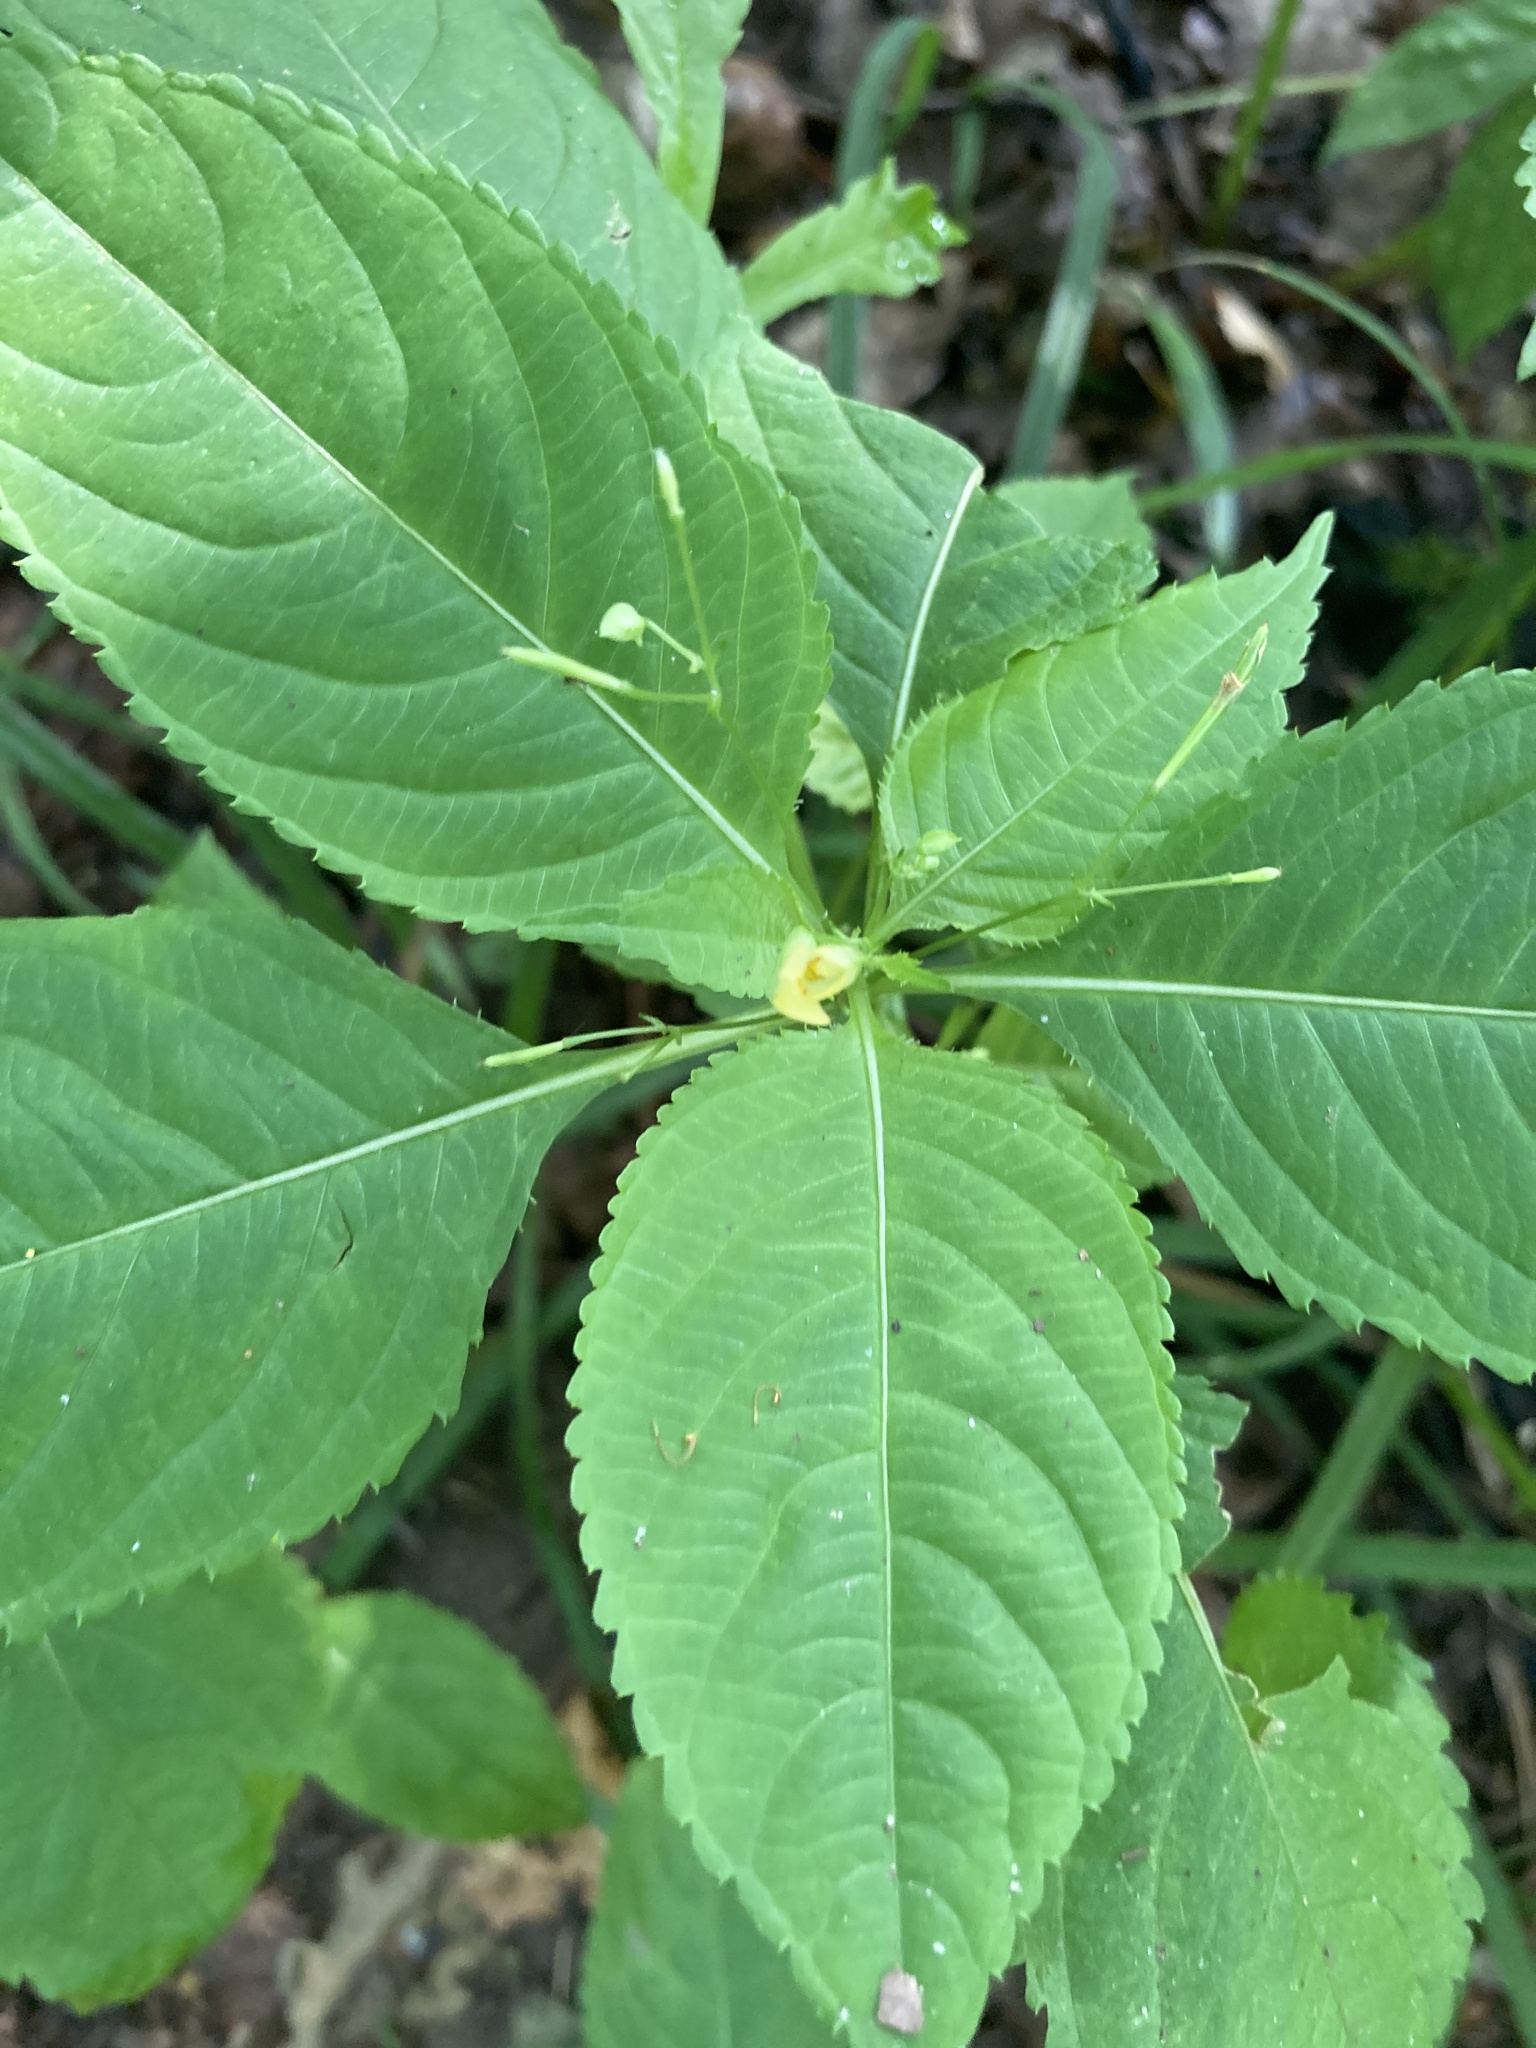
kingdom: Plantae
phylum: Tracheophyta
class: Magnoliopsida
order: Ericales
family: Balsaminaceae
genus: Impatiens
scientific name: Impatiens parviflora
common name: Small balsam
